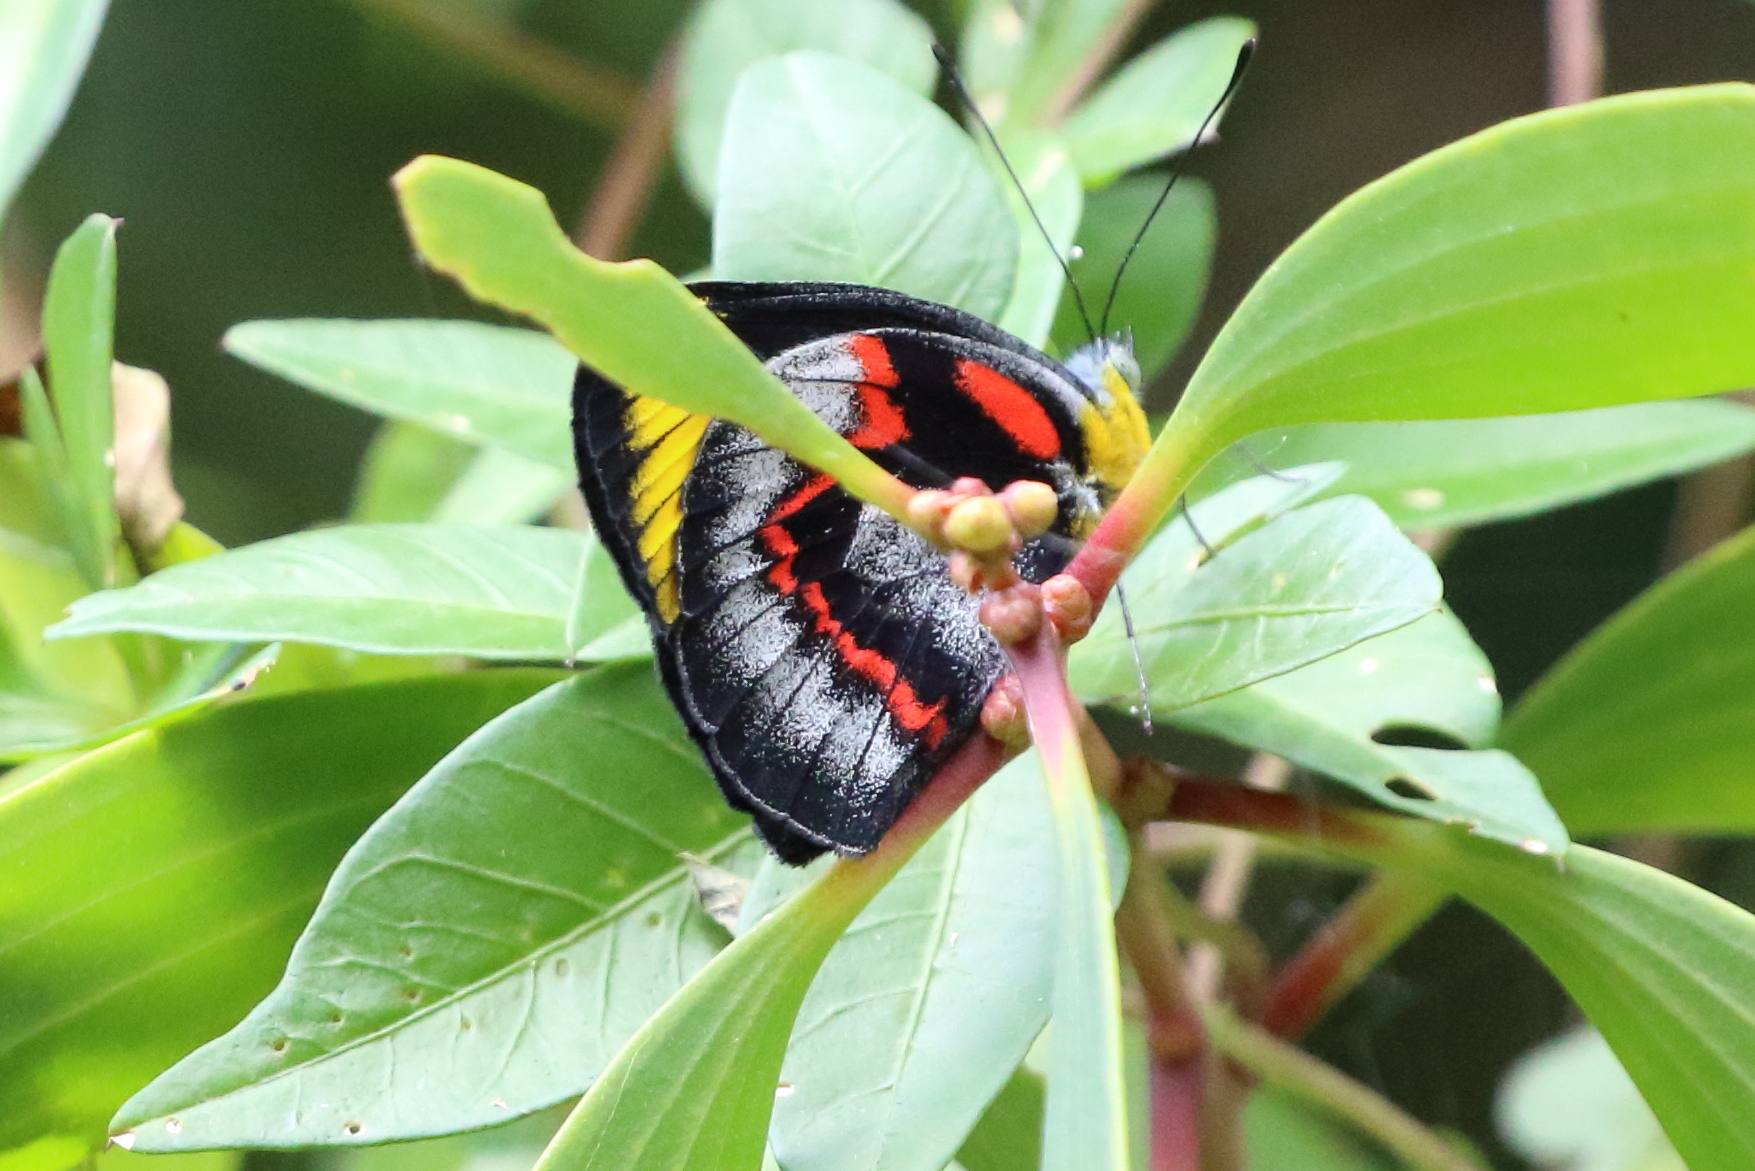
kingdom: Animalia
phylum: Arthropoda
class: Insecta
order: Lepidoptera
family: Pieridae
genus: Delias
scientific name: Delias nigrina
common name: Black jezebel
